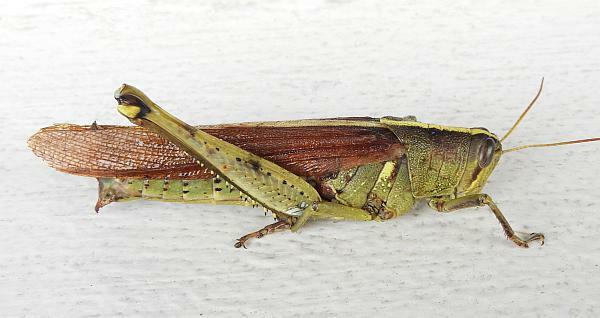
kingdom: Animalia
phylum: Arthropoda
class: Insecta
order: Orthoptera
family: Acrididae
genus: Schistocerca
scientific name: Schistocerca obscura
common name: Obscure bird grasshopper
